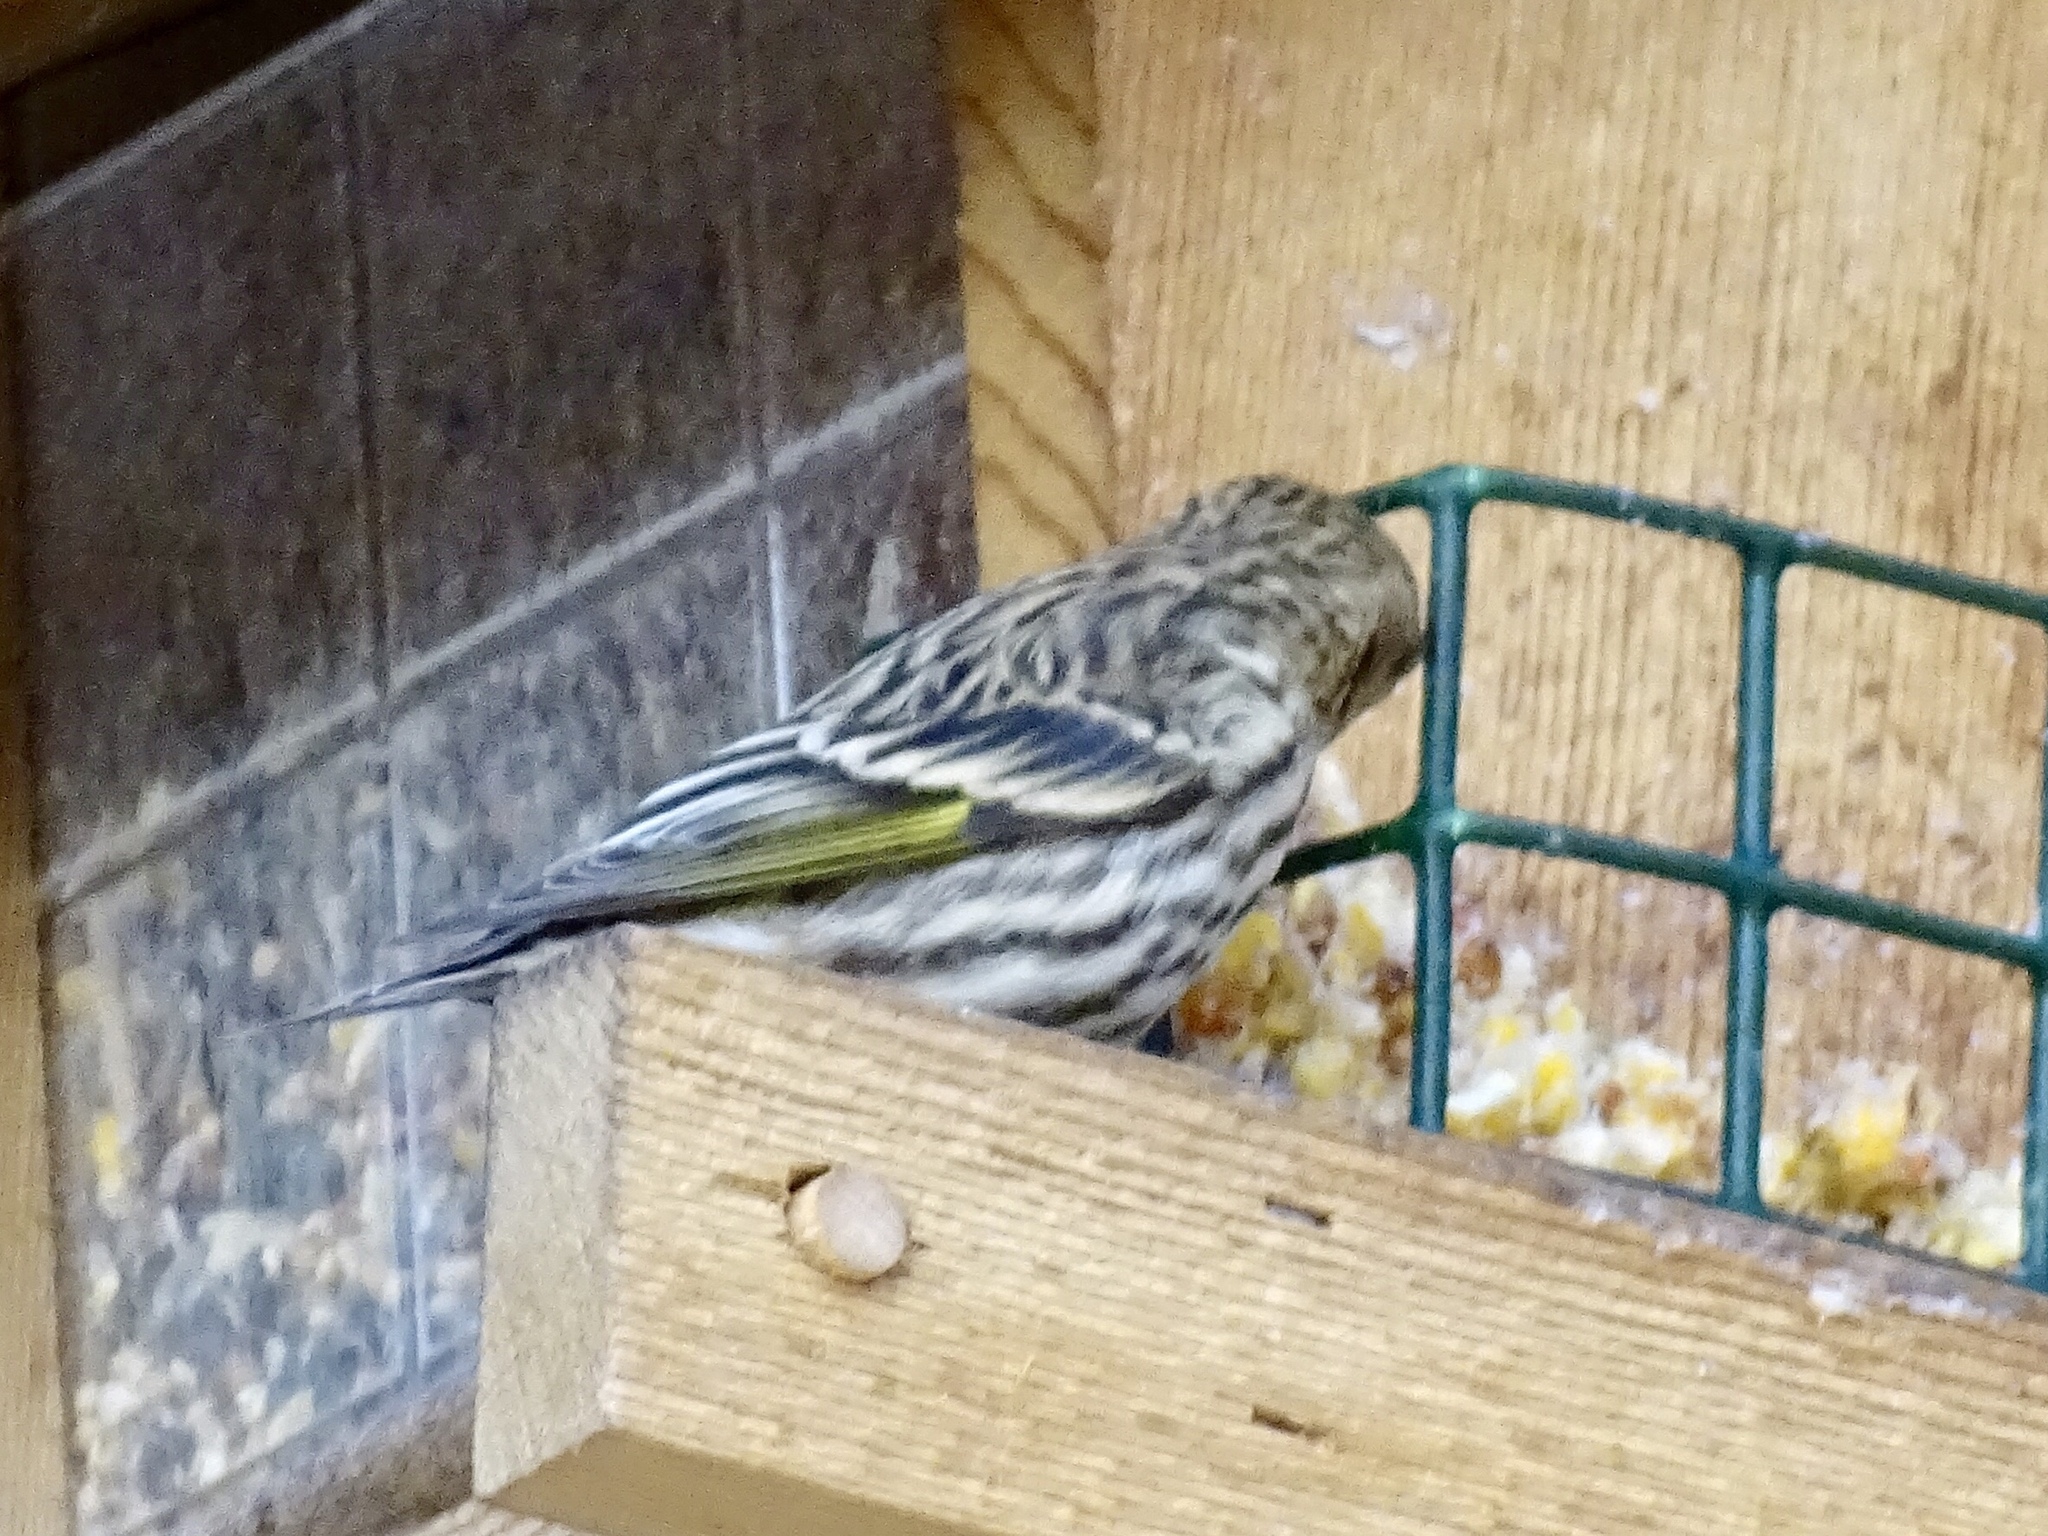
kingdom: Animalia
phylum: Chordata
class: Aves
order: Passeriformes
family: Fringillidae
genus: Spinus
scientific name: Spinus pinus
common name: Pine siskin
